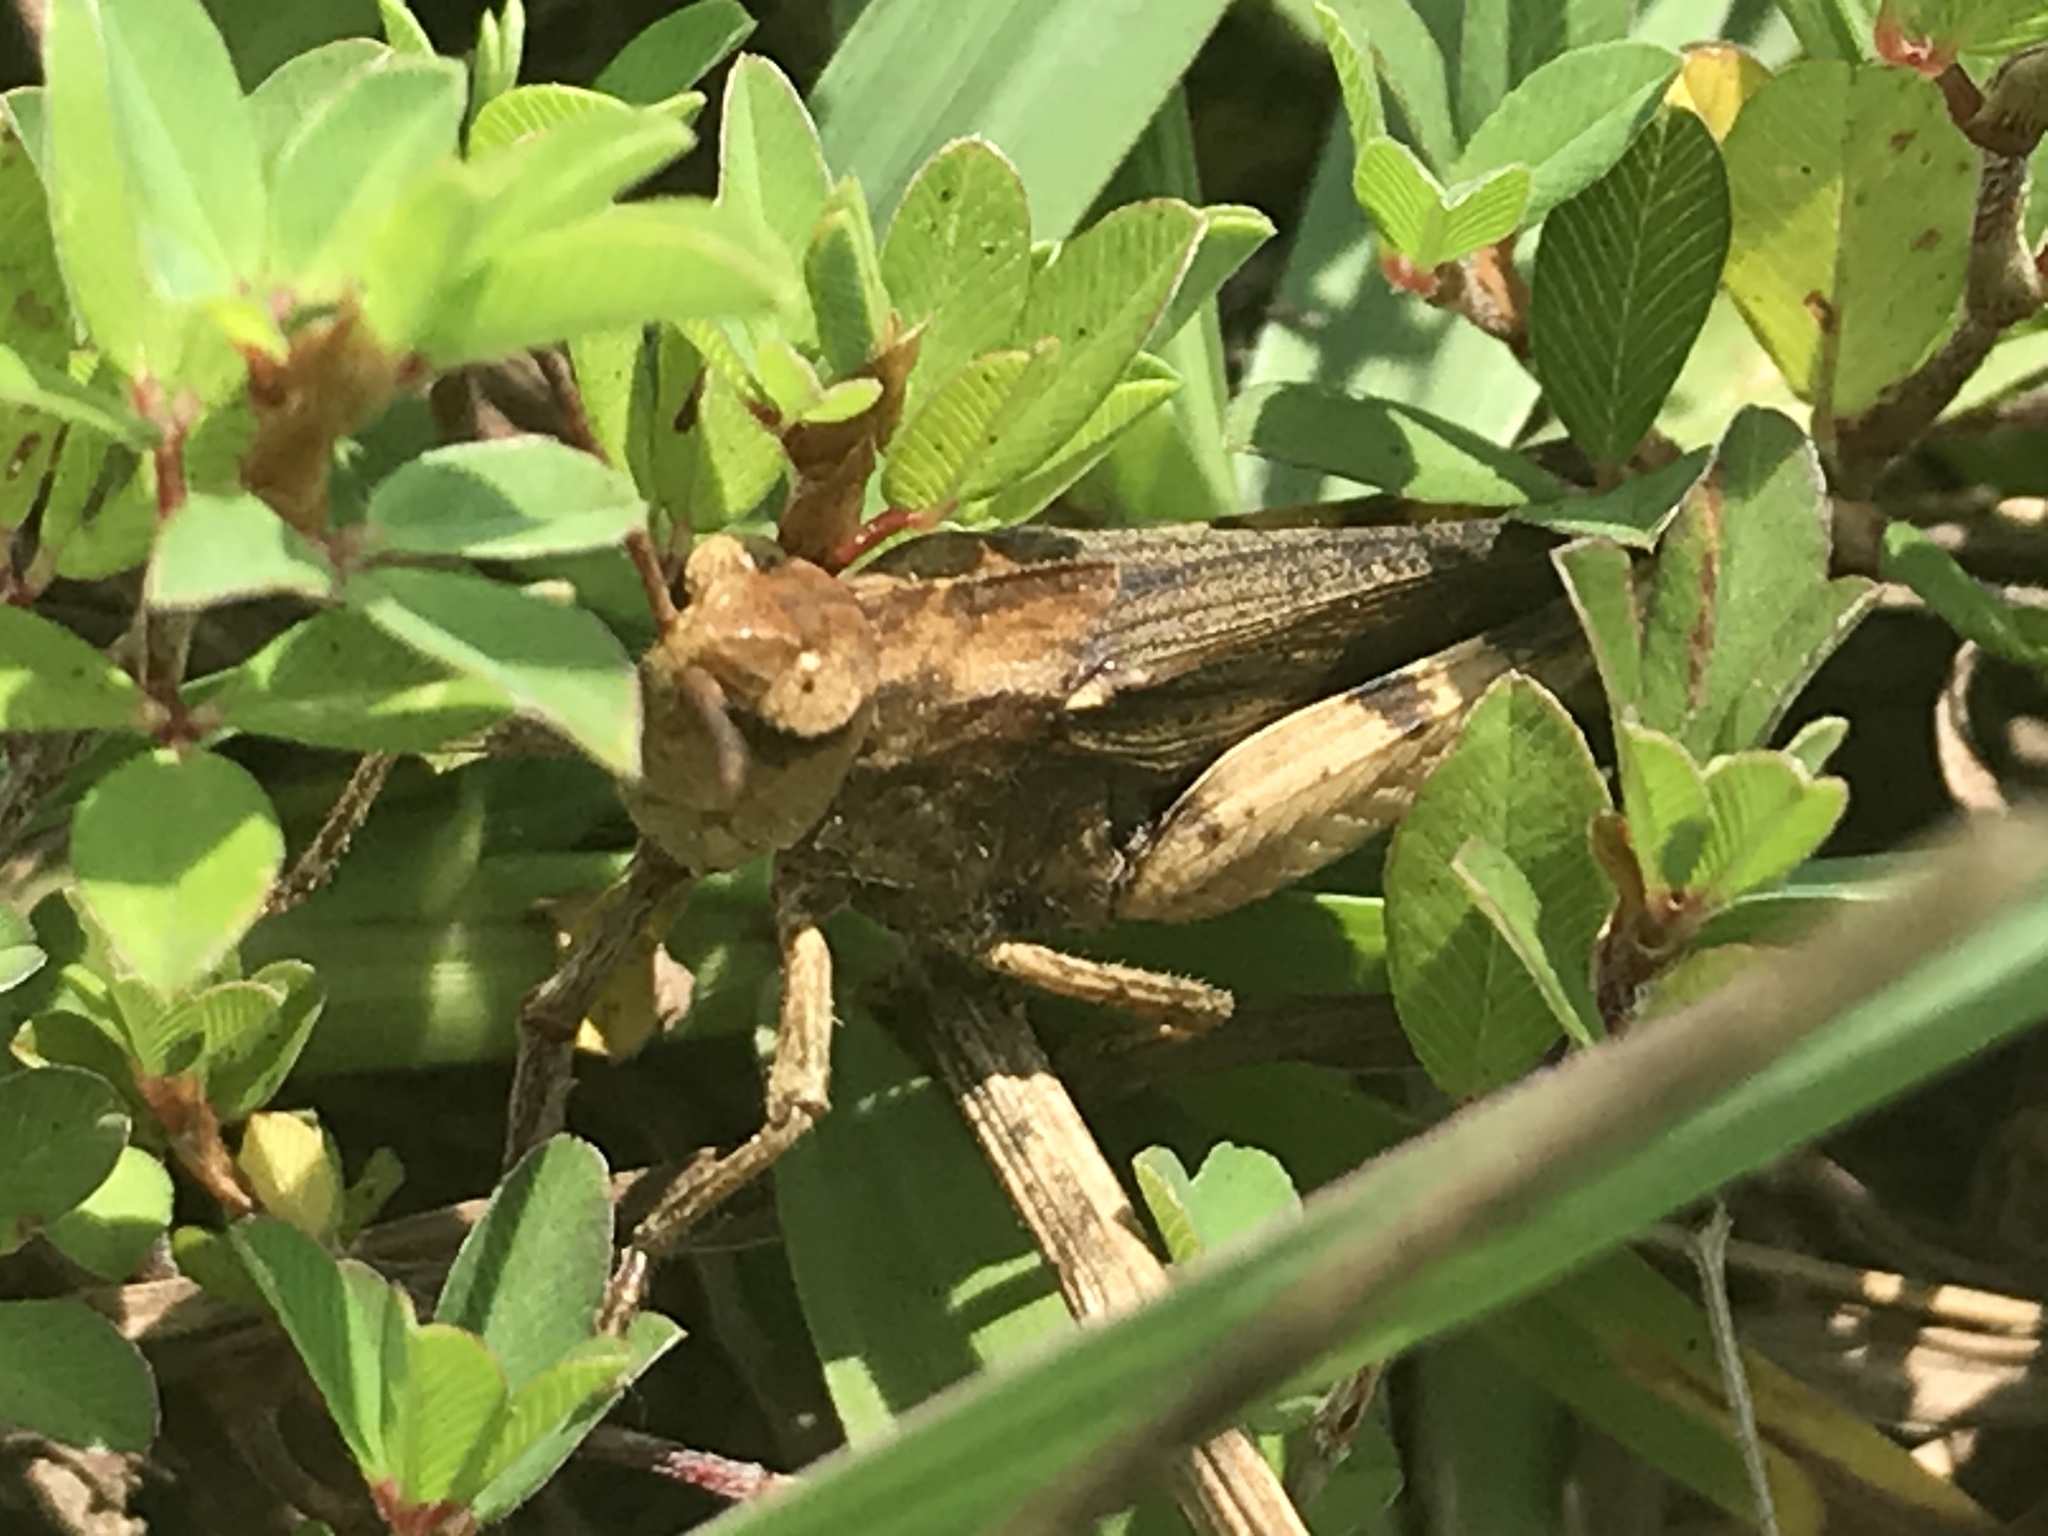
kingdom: Animalia
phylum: Arthropoda
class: Insecta
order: Orthoptera
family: Acrididae
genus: Chortophaga
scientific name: Chortophaga viridifasciata
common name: Green-striped grasshopper
